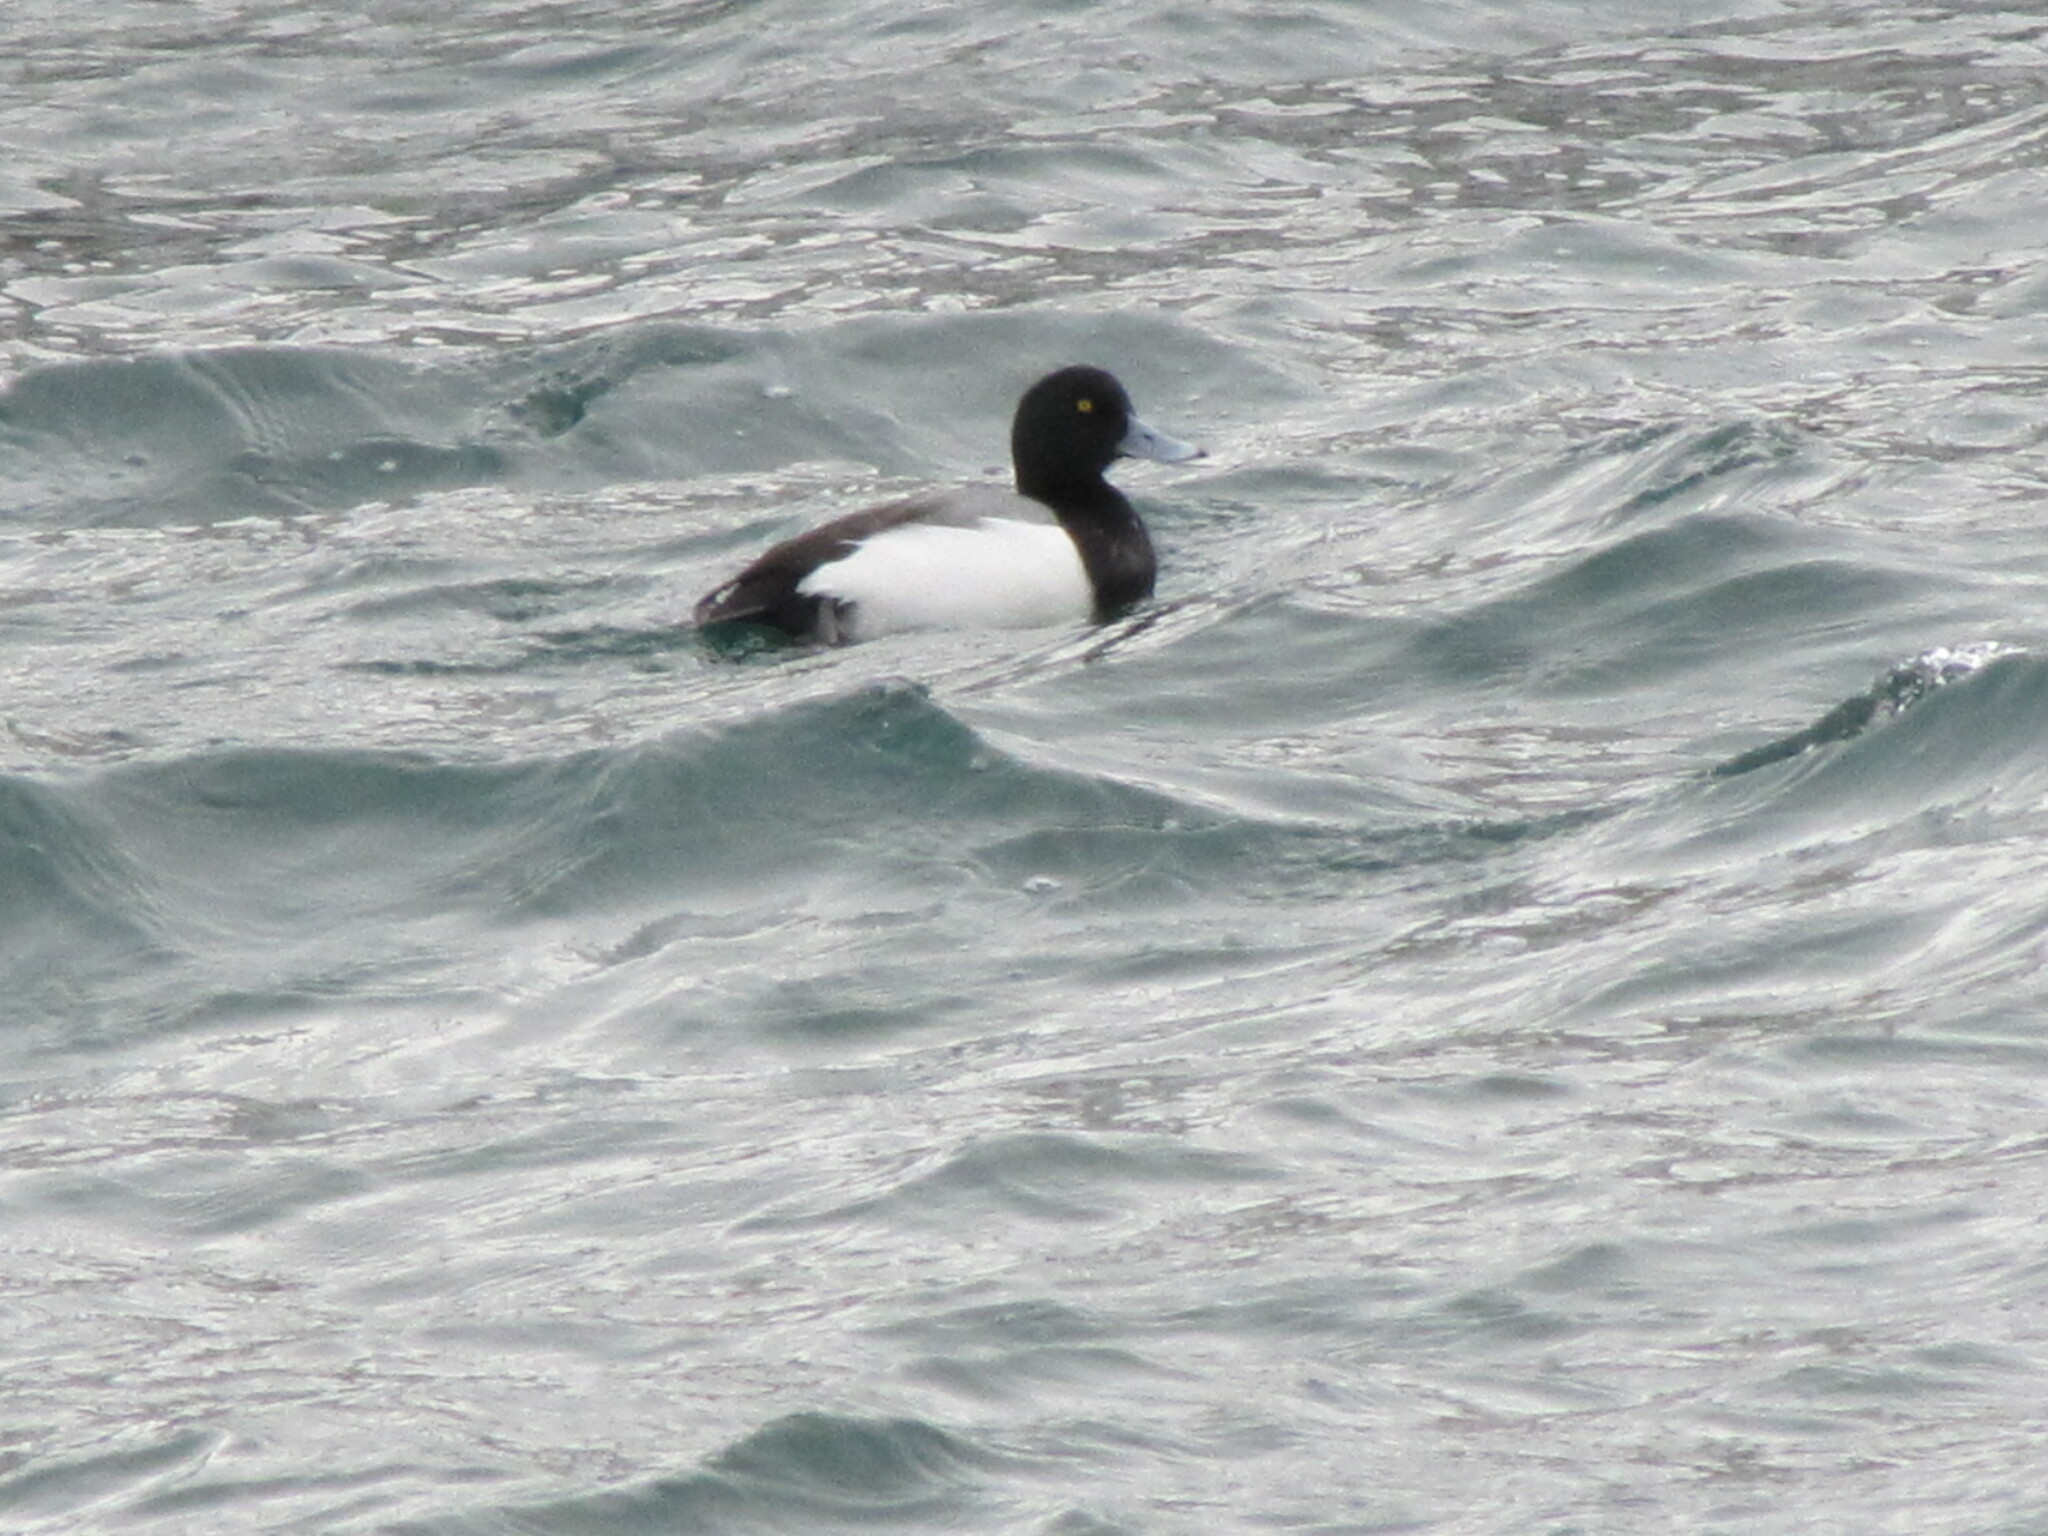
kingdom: Animalia
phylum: Chordata
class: Aves
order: Anseriformes
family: Anatidae
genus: Aythya
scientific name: Aythya marila
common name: Greater scaup
